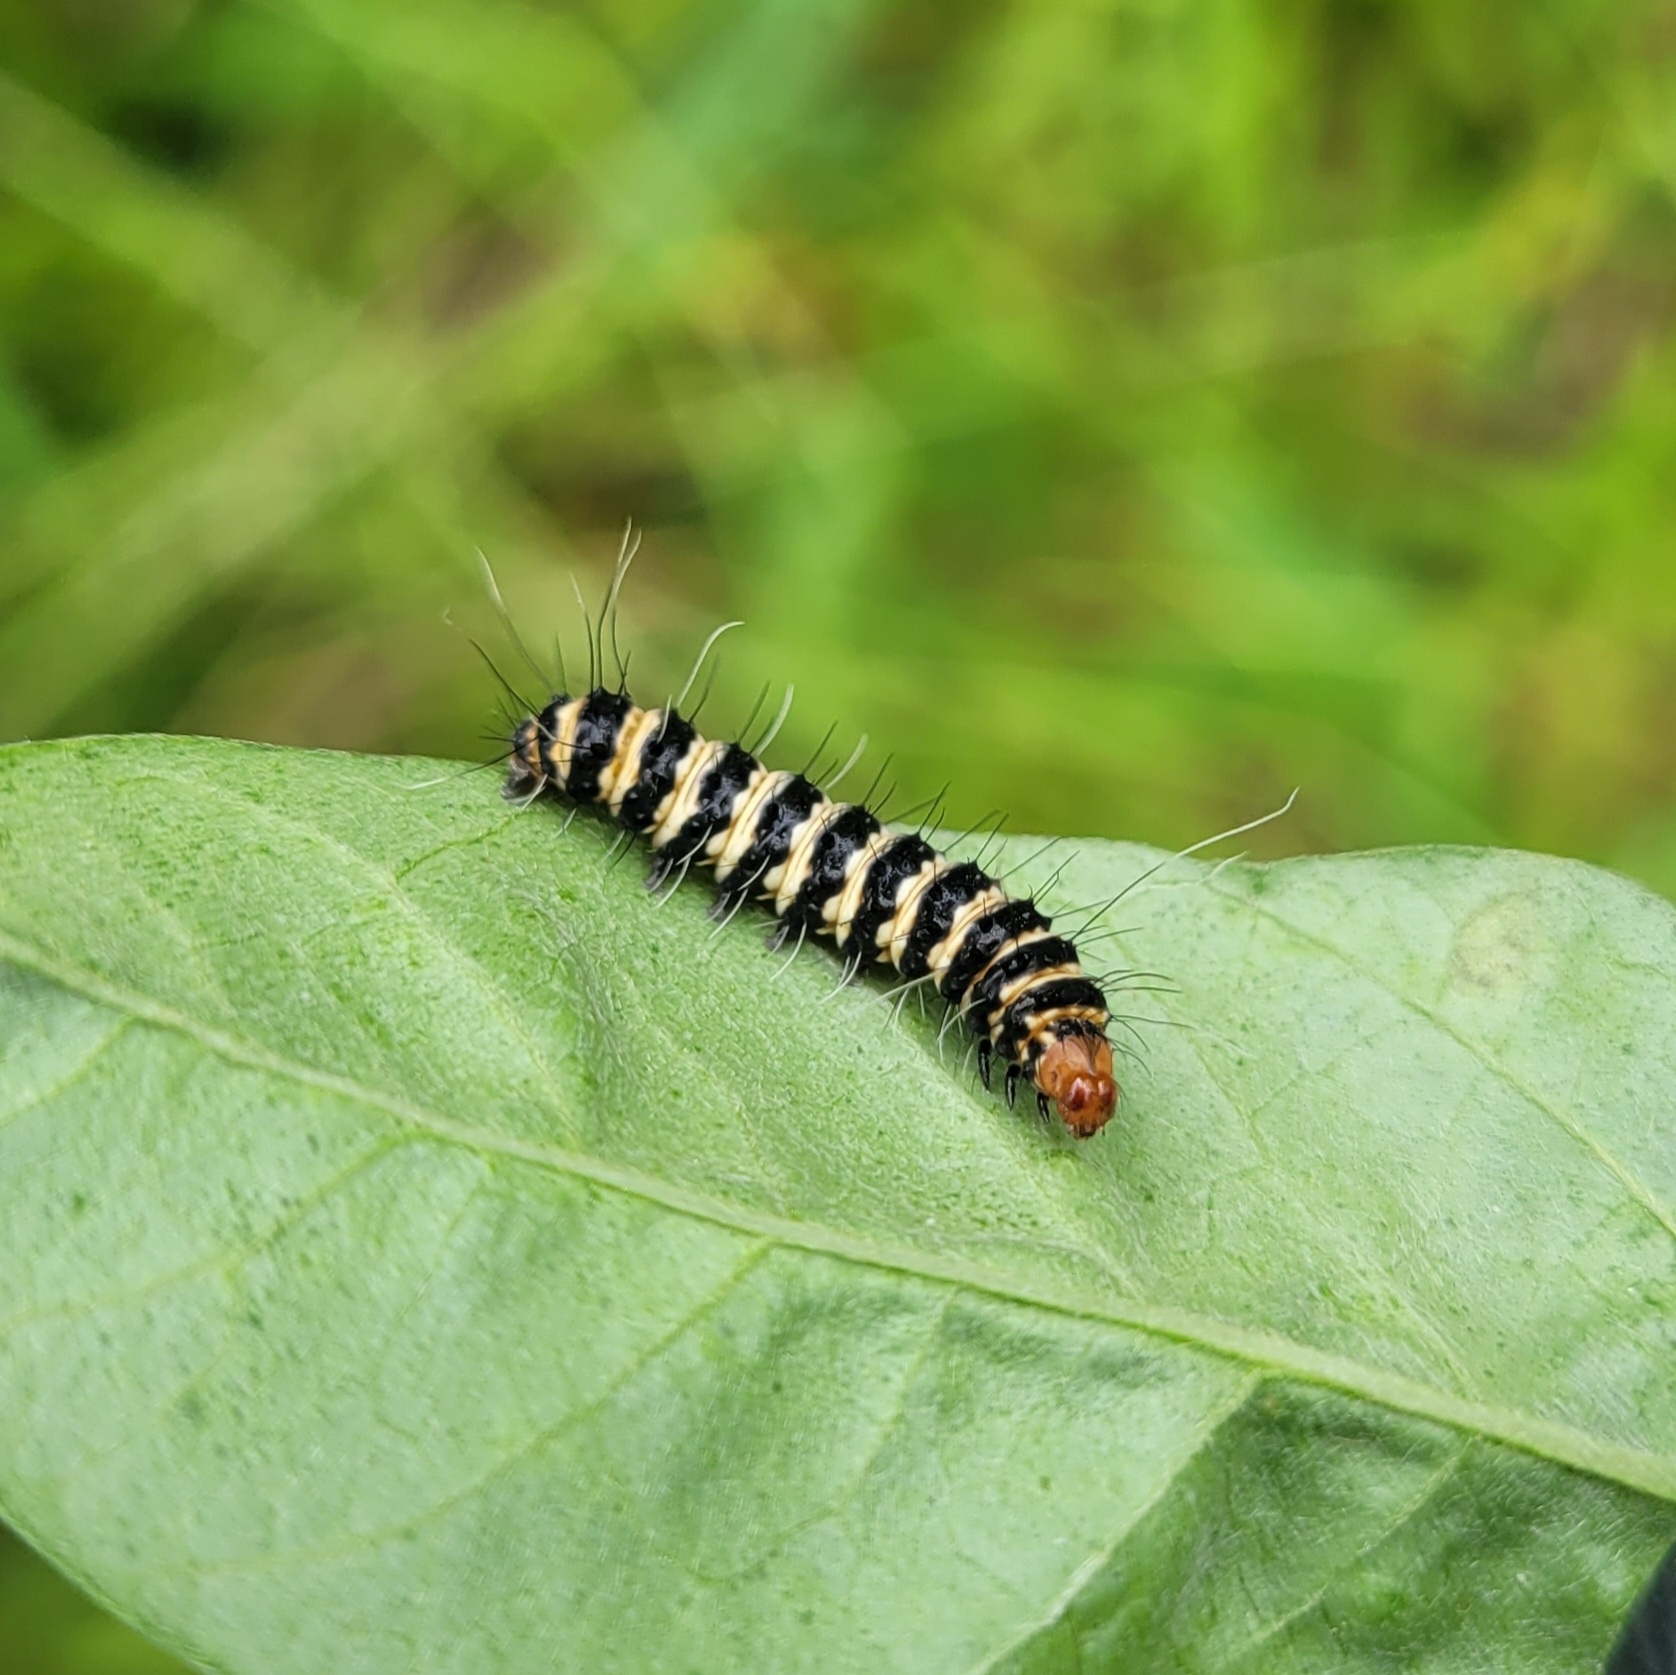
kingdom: Animalia
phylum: Arthropoda
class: Insecta
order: Lepidoptera
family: Erebidae
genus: Utetheisa
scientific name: Utetheisa ornatrix
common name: Beautiful utetheisa
